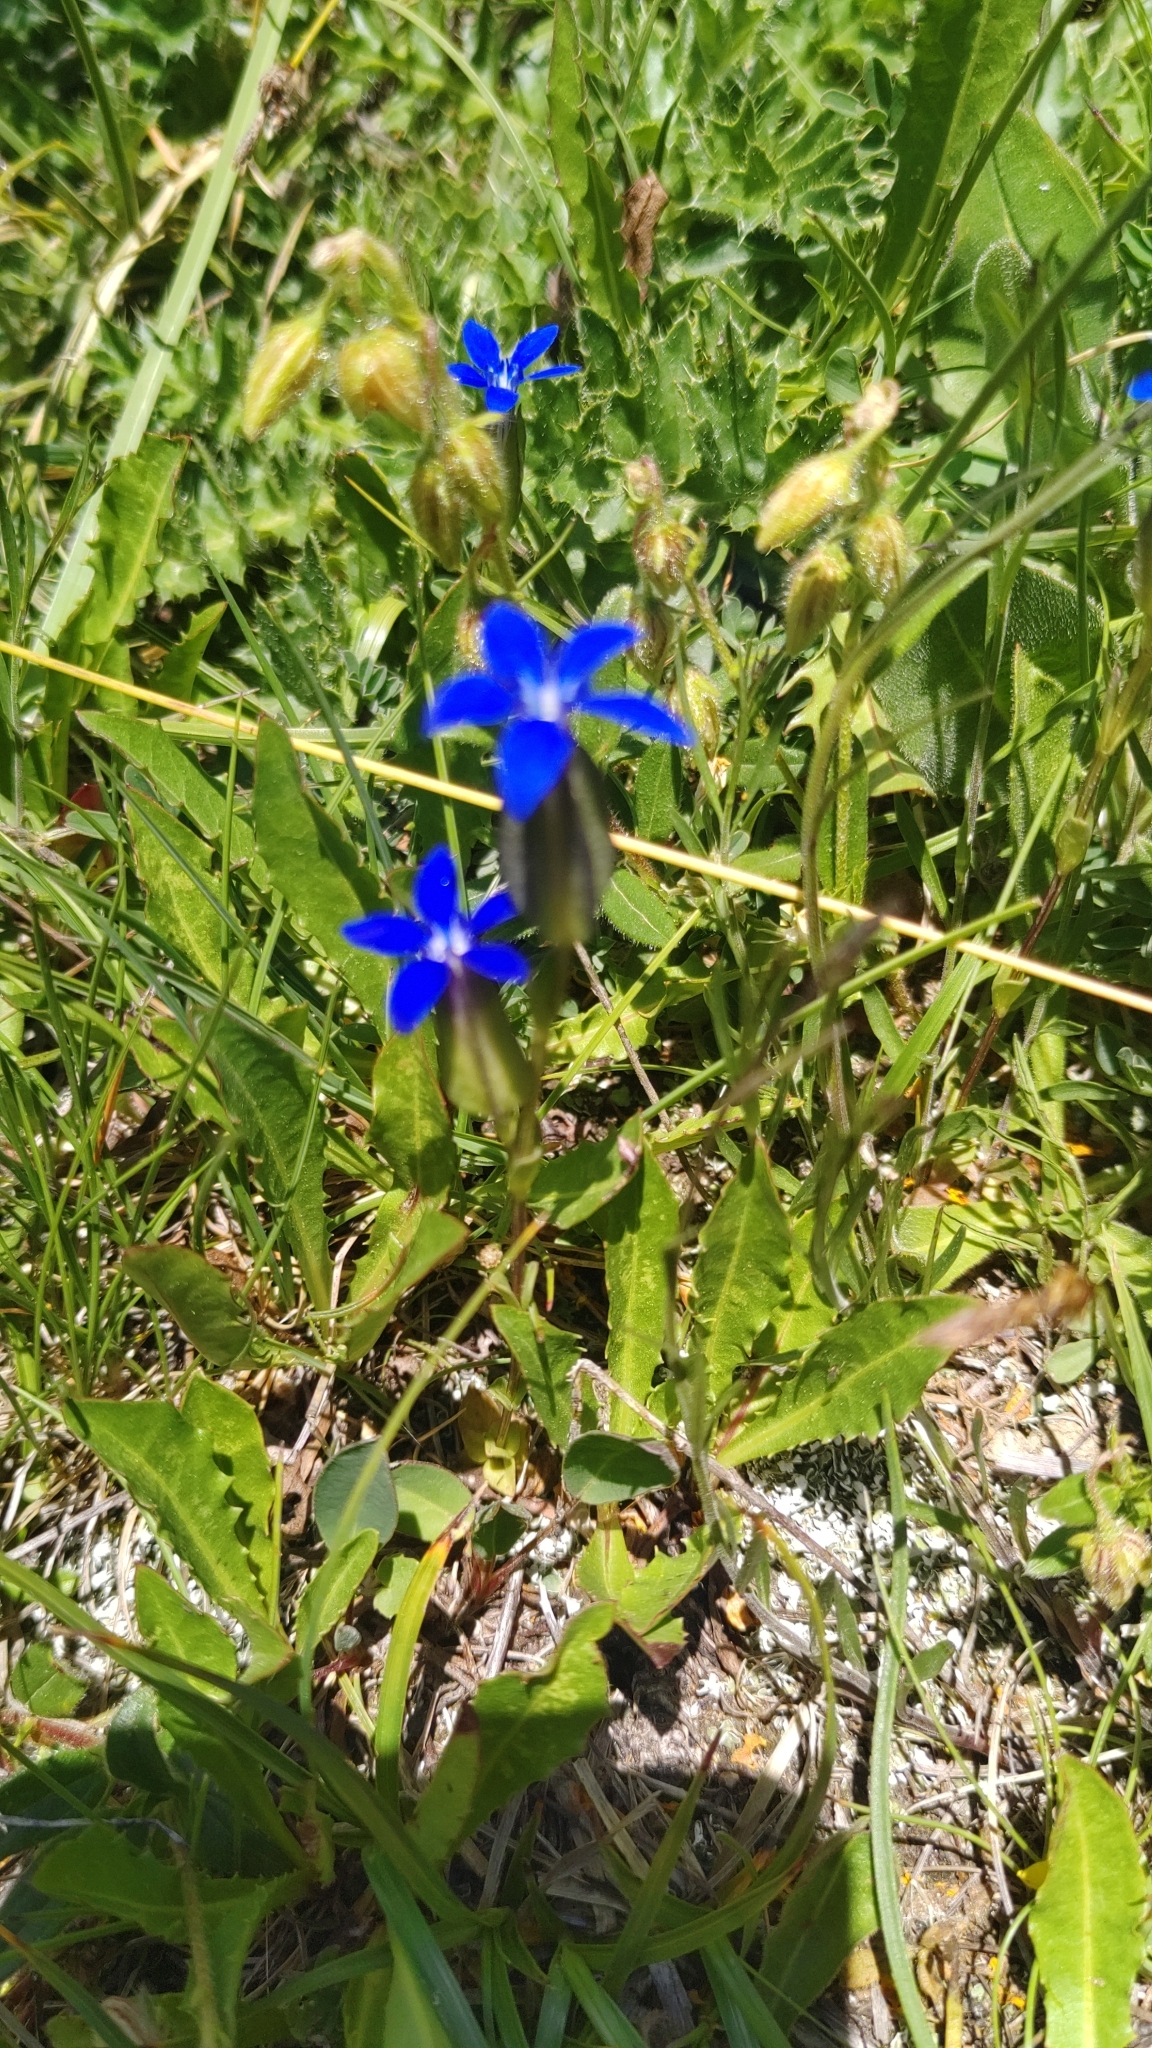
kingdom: Plantae
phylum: Tracheophyta
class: Magnoliopsida
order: Gentianales
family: Gentianaceae
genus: Gentiana
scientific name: Gentiana utriculosa
